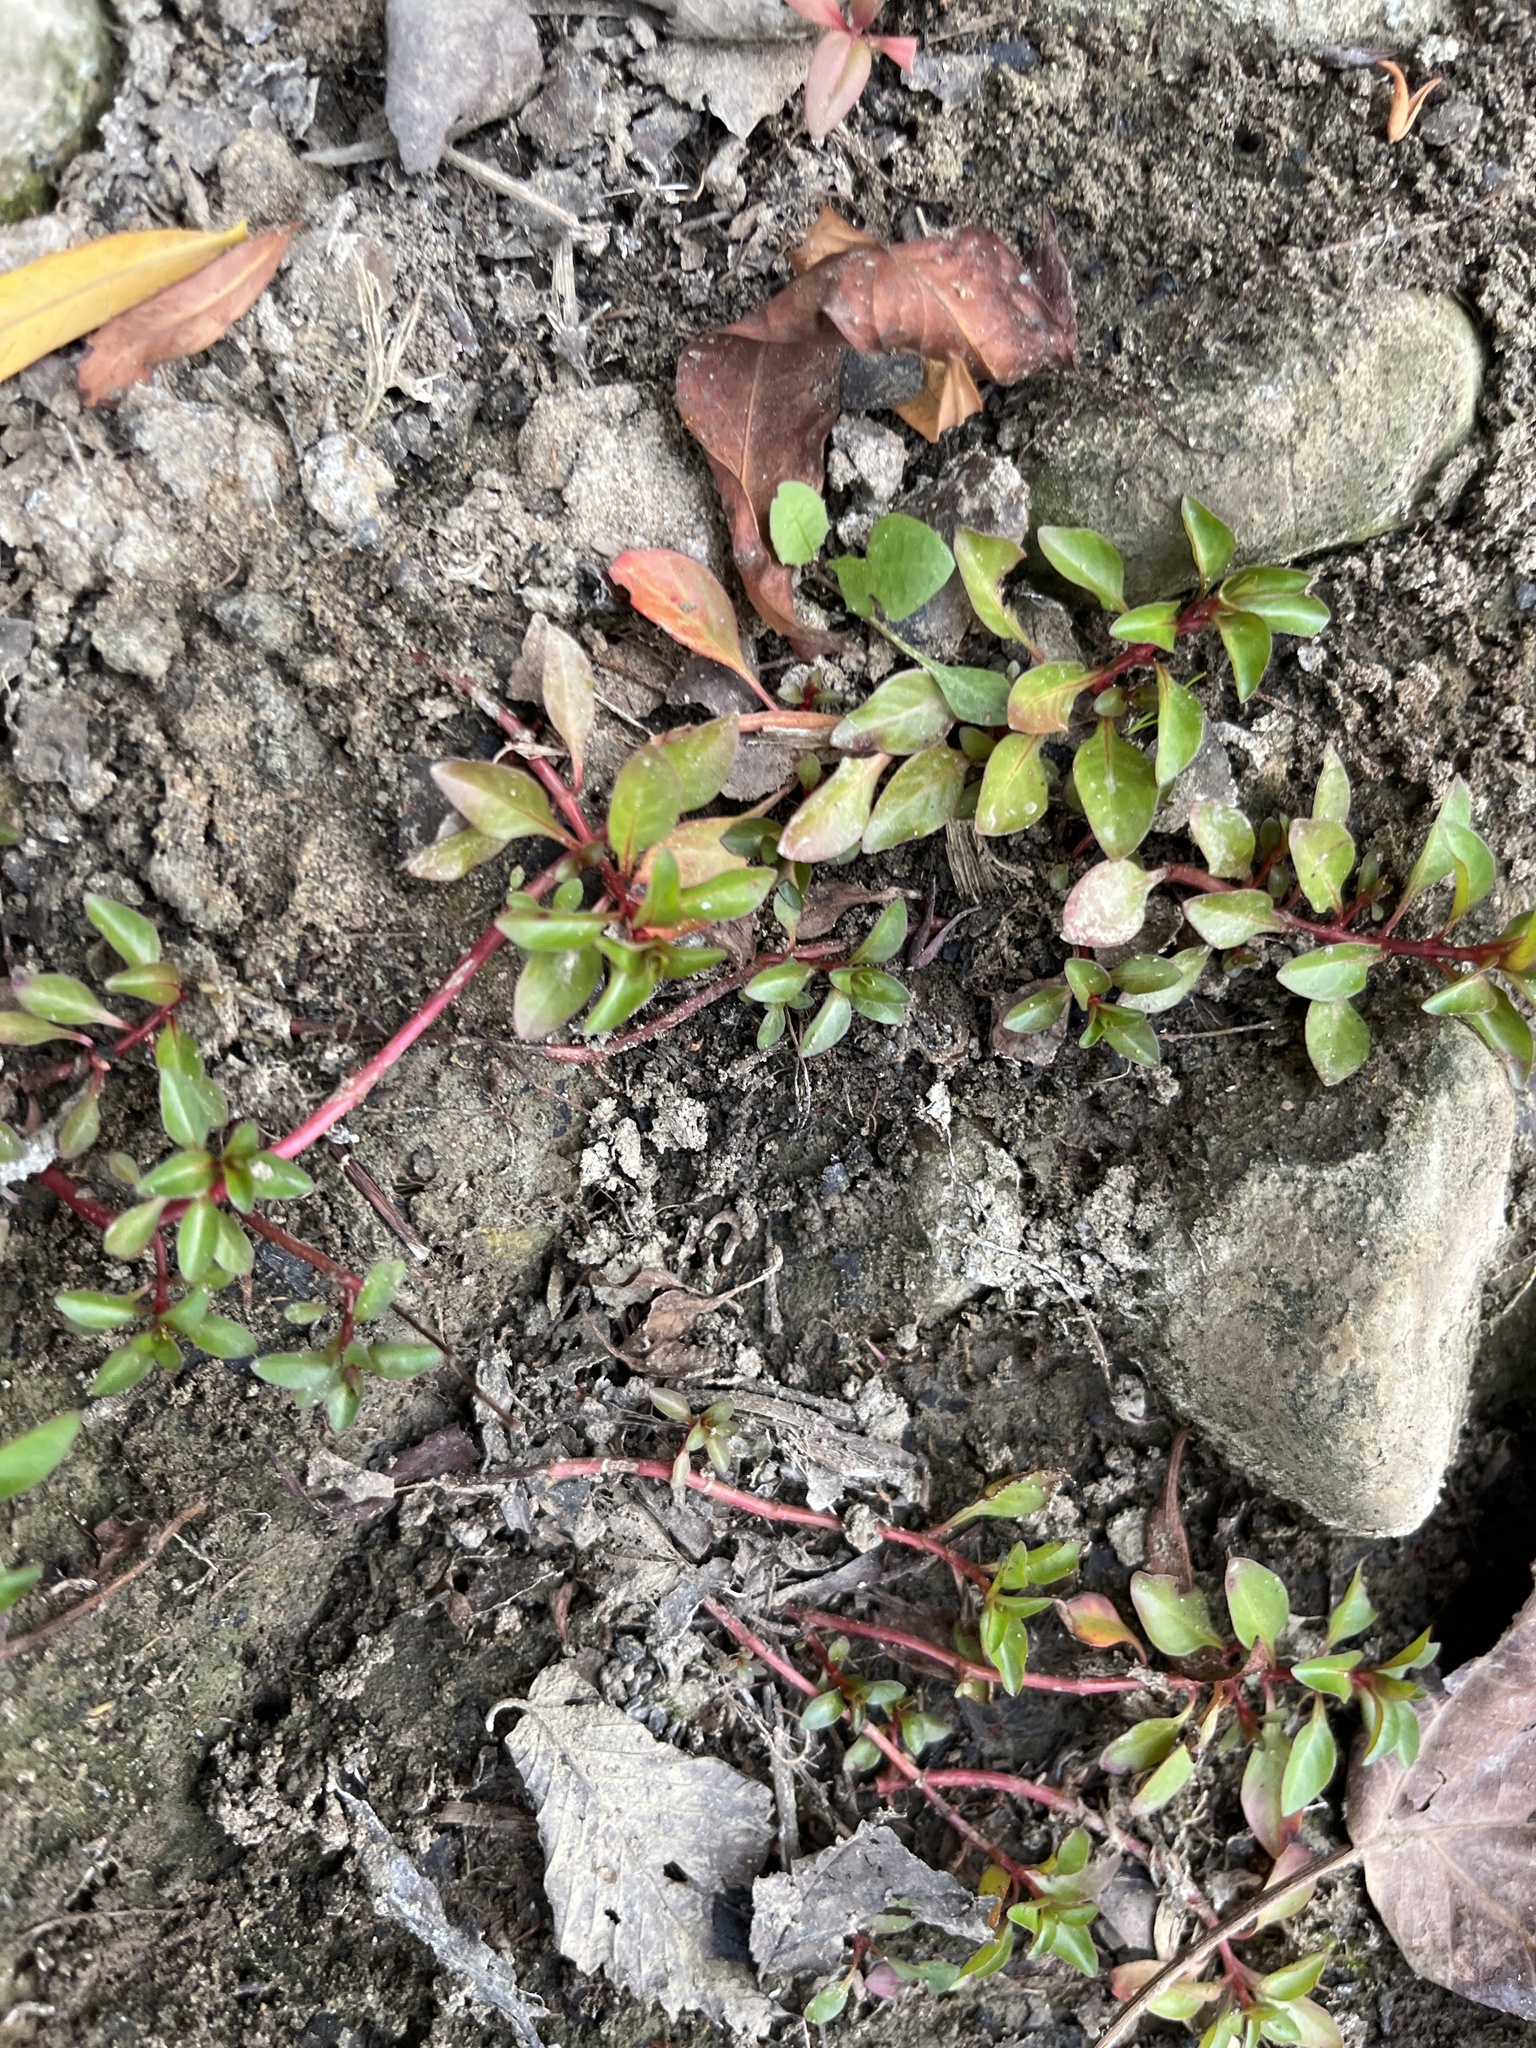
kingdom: Plantae
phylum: Tracheophyta
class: Magnoliopsida
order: Myrtales
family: Onagraceae
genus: Ludwigia
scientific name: Ludwigia palustris
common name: Hampshire-purslane
